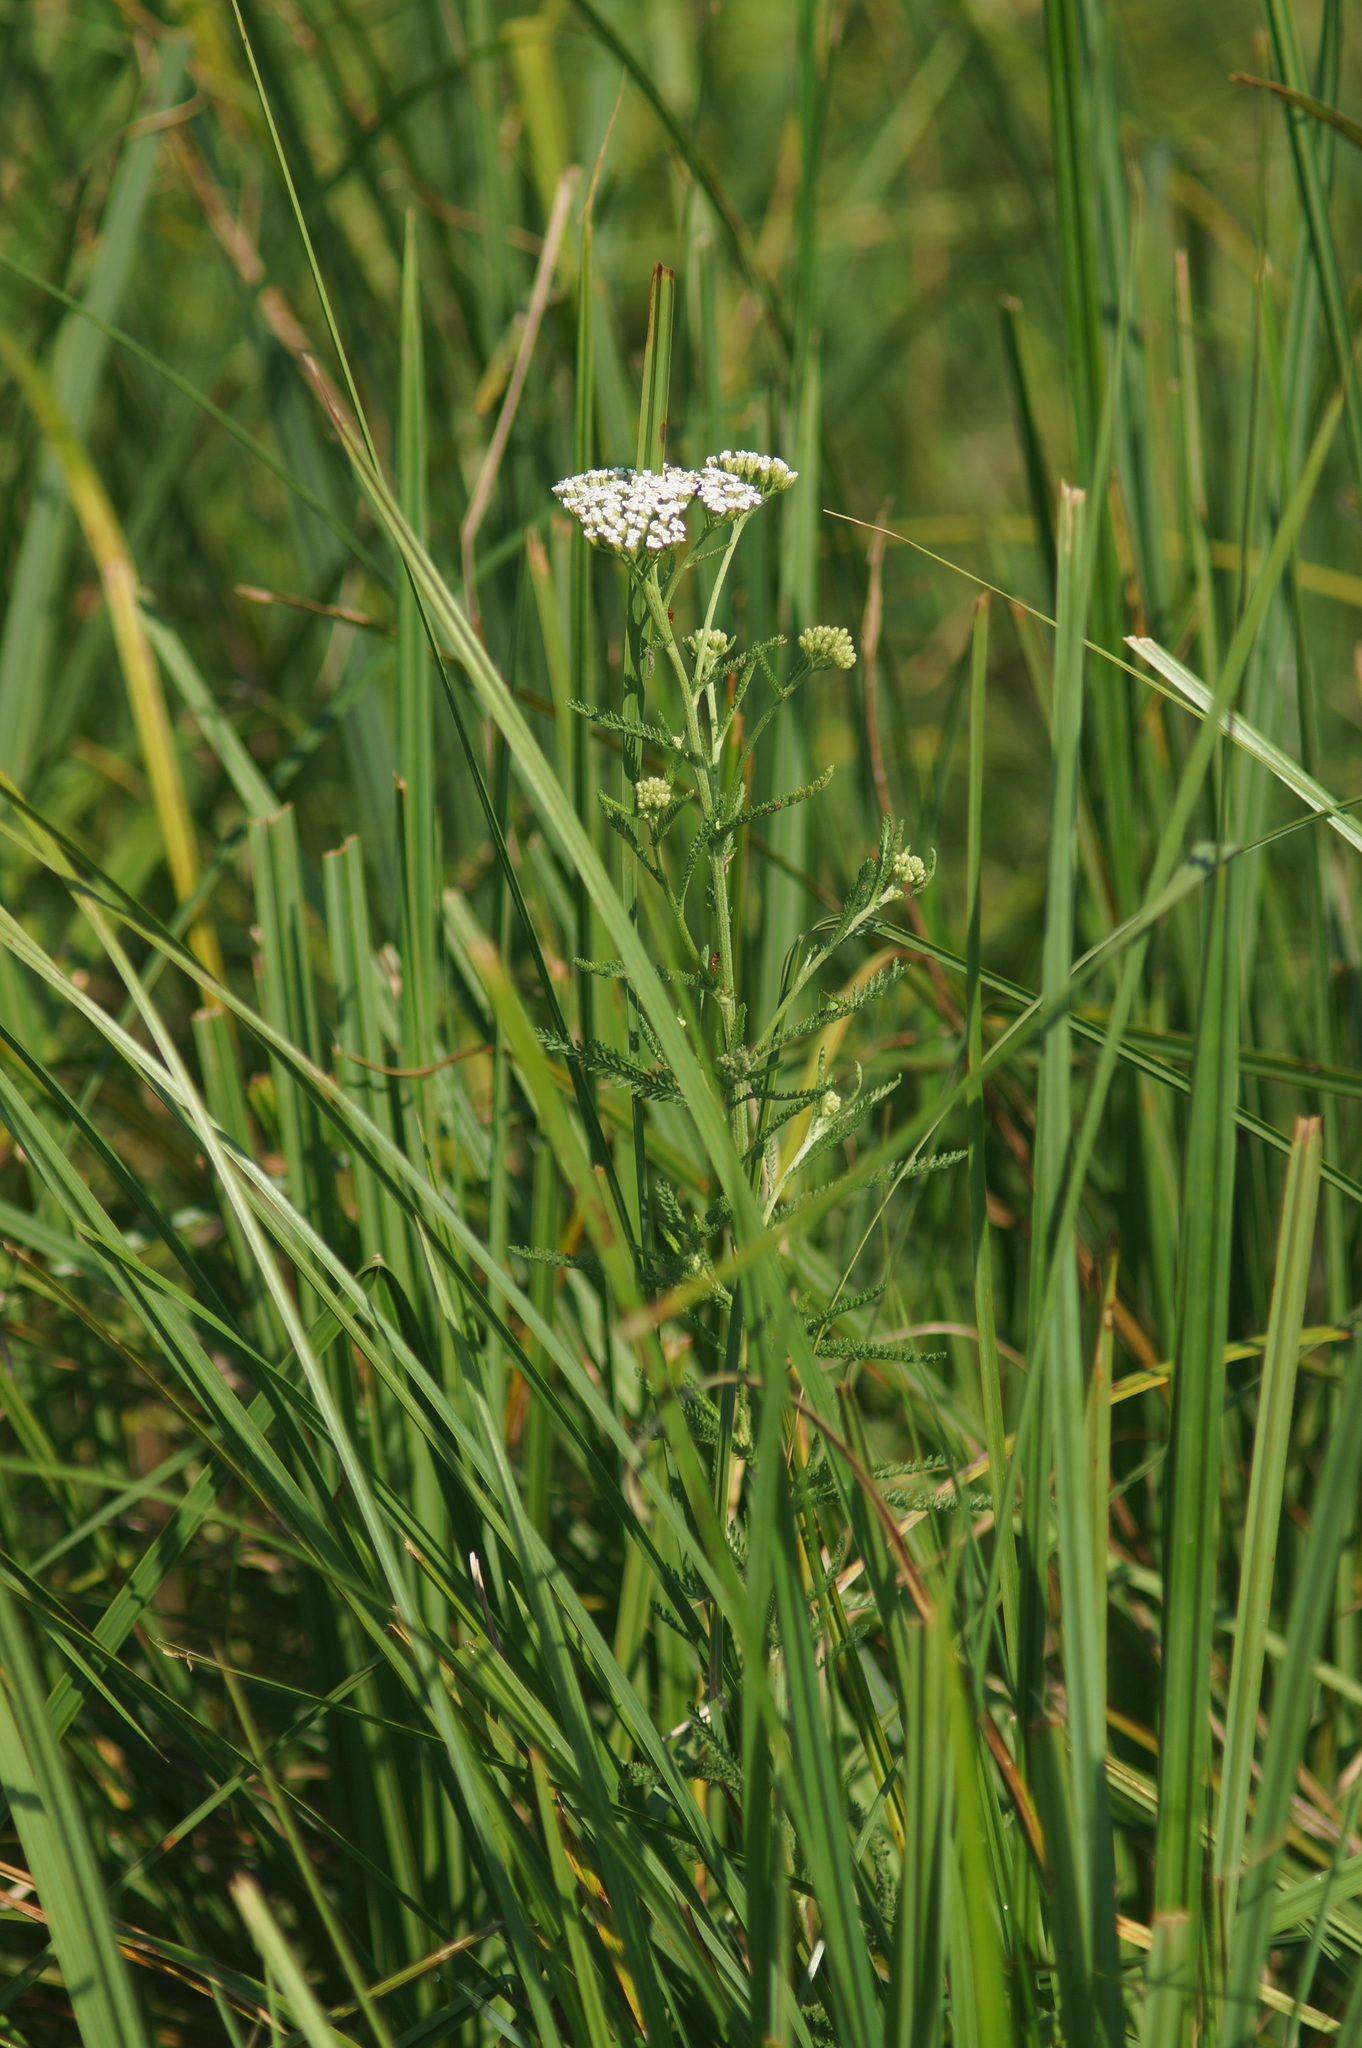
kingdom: Plantae
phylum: Tracheophyta
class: Magnoliopsida
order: Asterales
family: Asteraceae
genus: Achillea
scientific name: Achillea millefolium
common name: Yarrow
